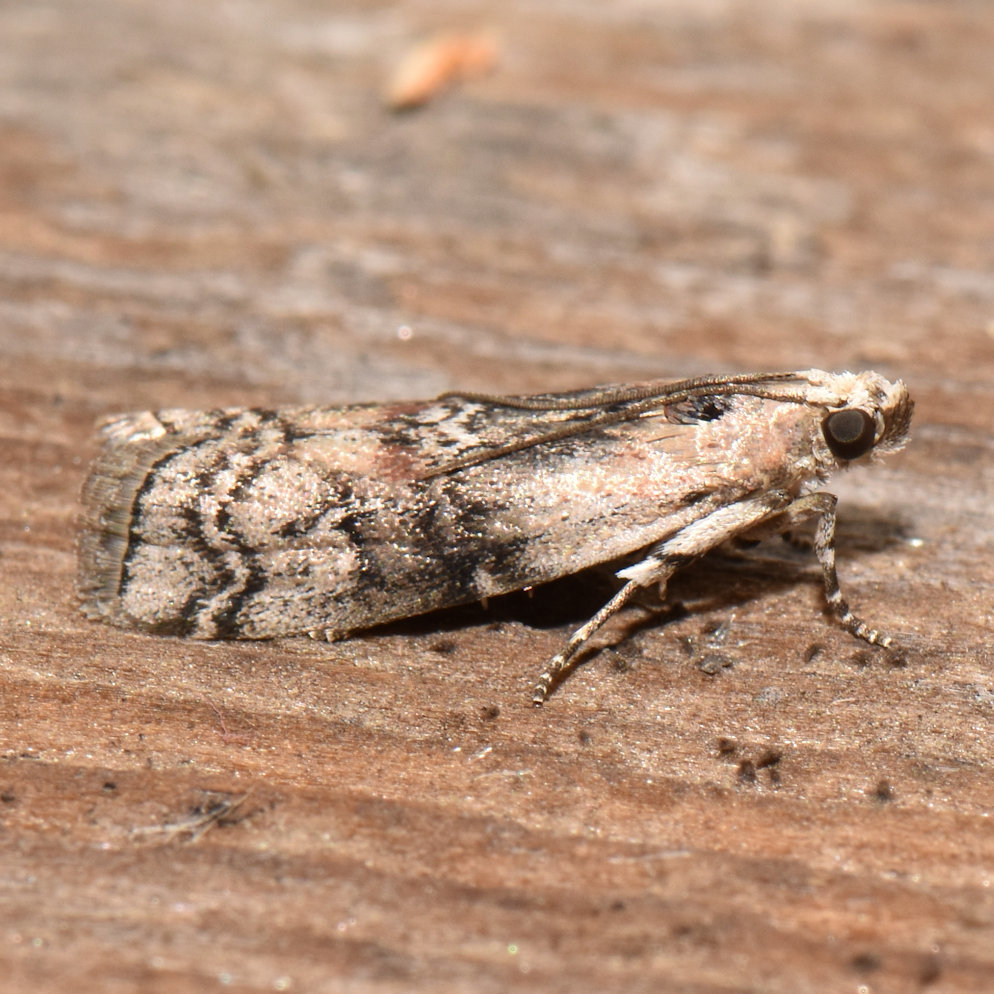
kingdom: Animalia
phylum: Arthropoda
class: Insecta
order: Lepidoptera
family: Pyralidae
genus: Glyptocera
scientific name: Glyptocera consobrinella
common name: Viburnum glyptocera moth
